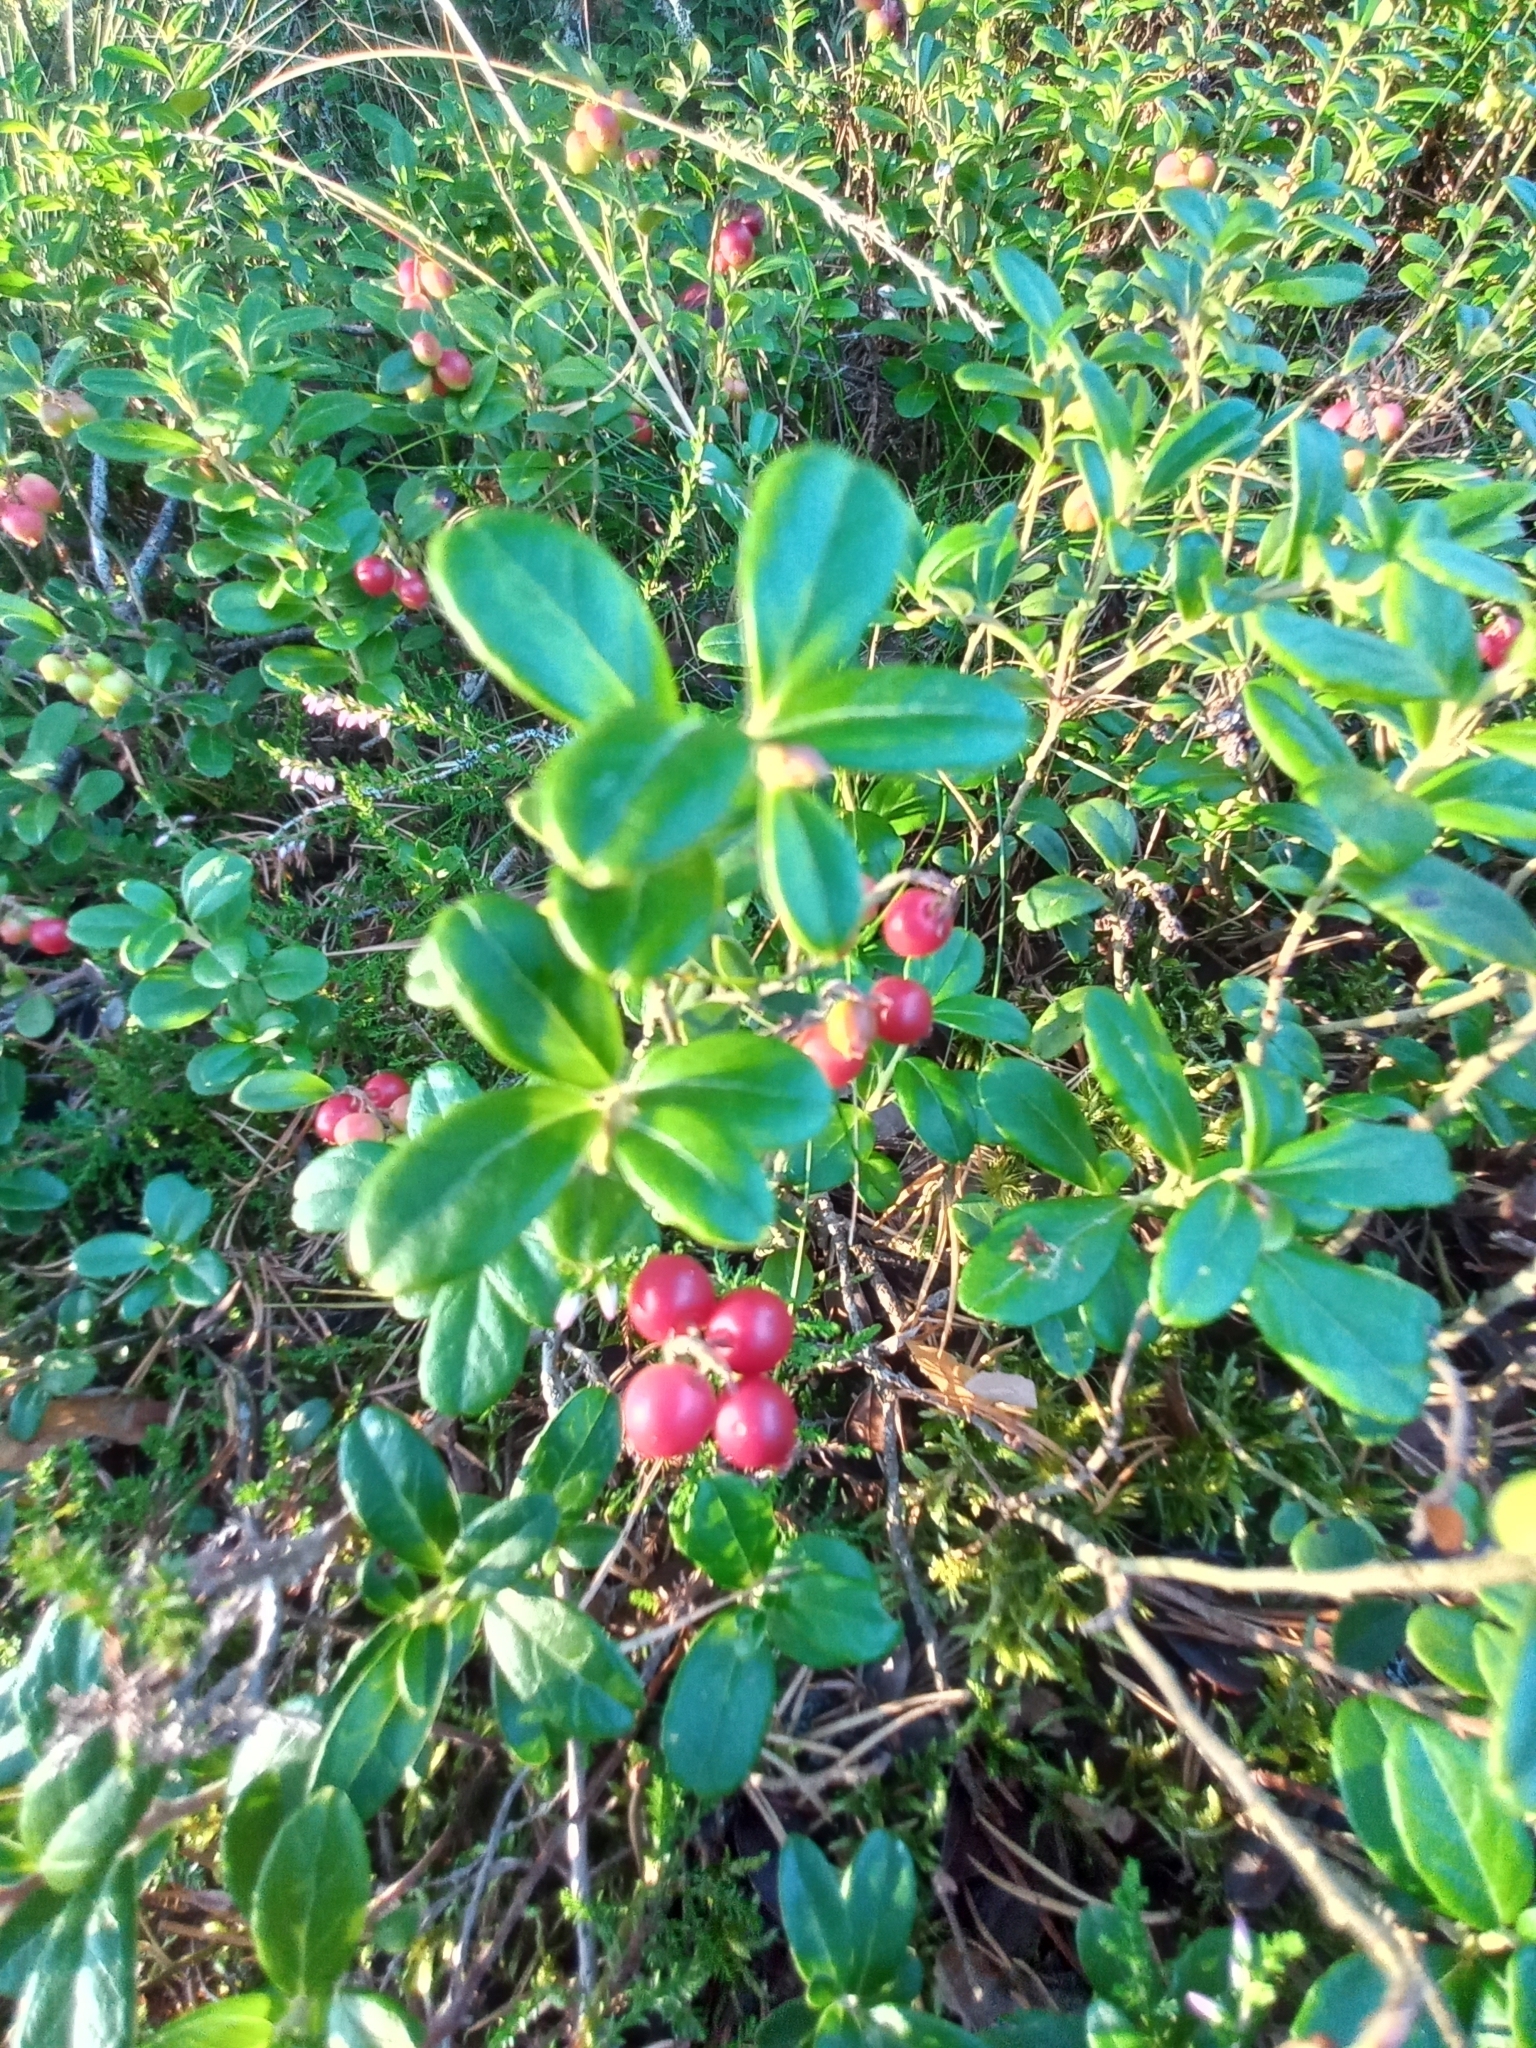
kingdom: Plantae
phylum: Tracheophyta
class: Magnoliopsida
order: Ericales
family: Ericaceae
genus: Vaccinium
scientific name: Vaccinium vitis-idaea
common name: Cowberry
